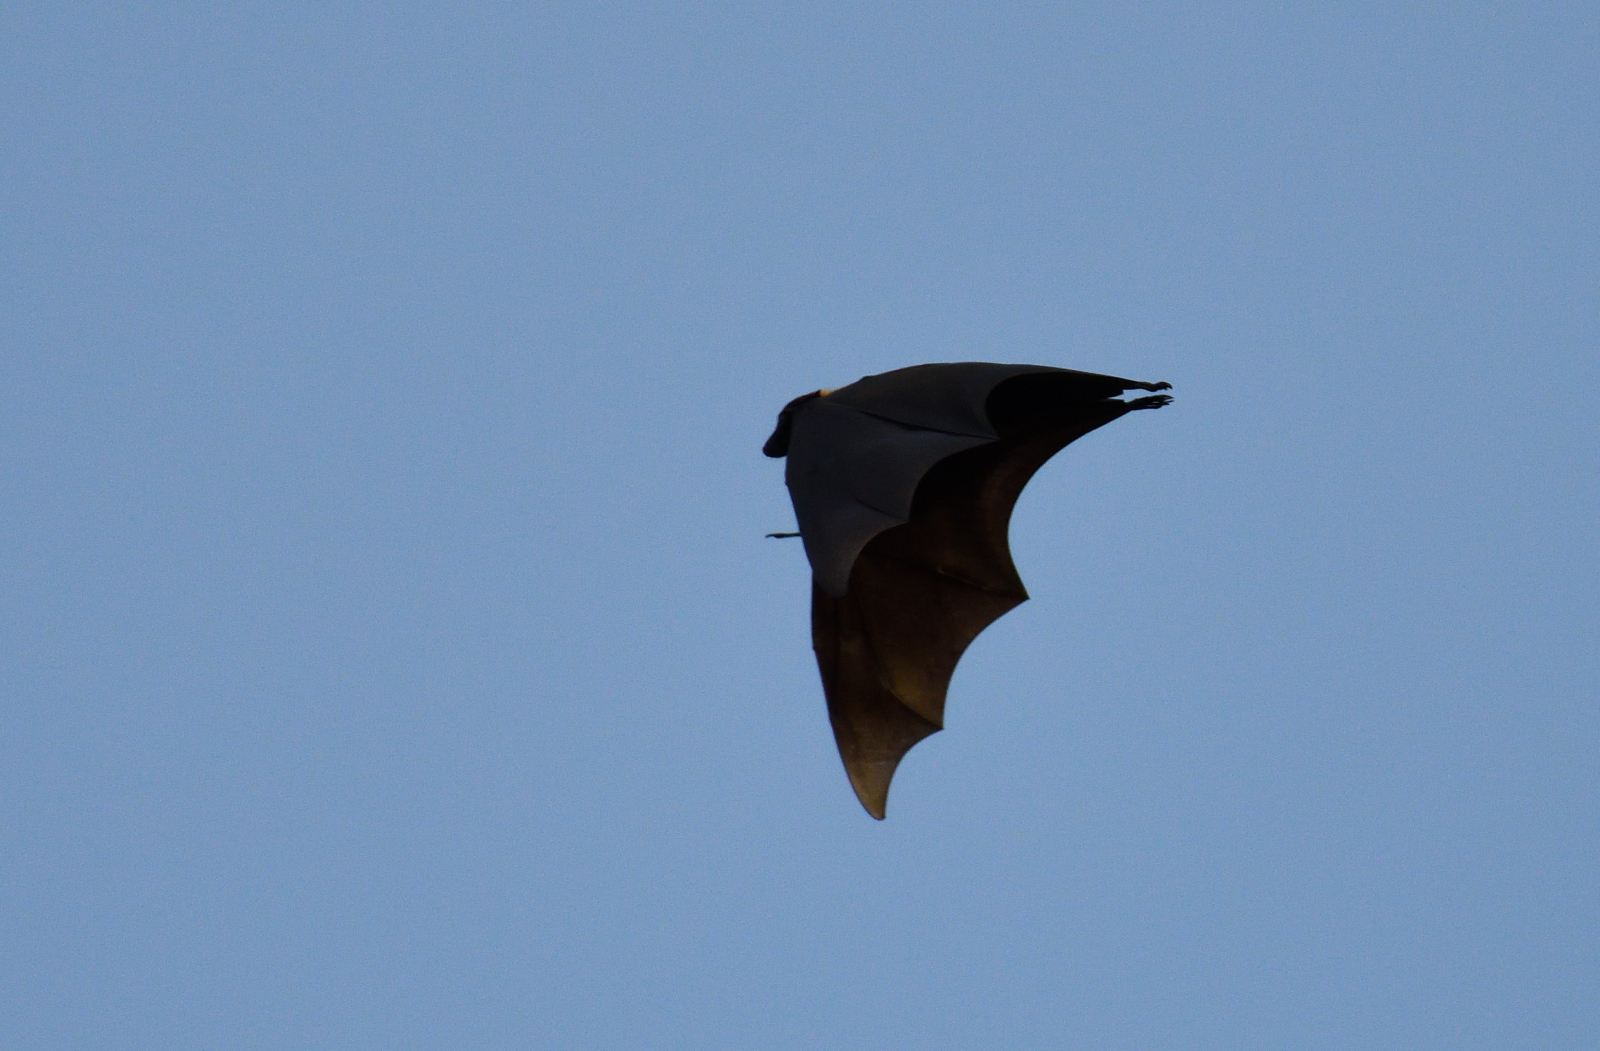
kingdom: Animalia
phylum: Chordata
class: Mammalia
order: Chiroptera
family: Pteropodidae
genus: Pteropus
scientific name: Pteropus vampyrus
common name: Large flying fox
